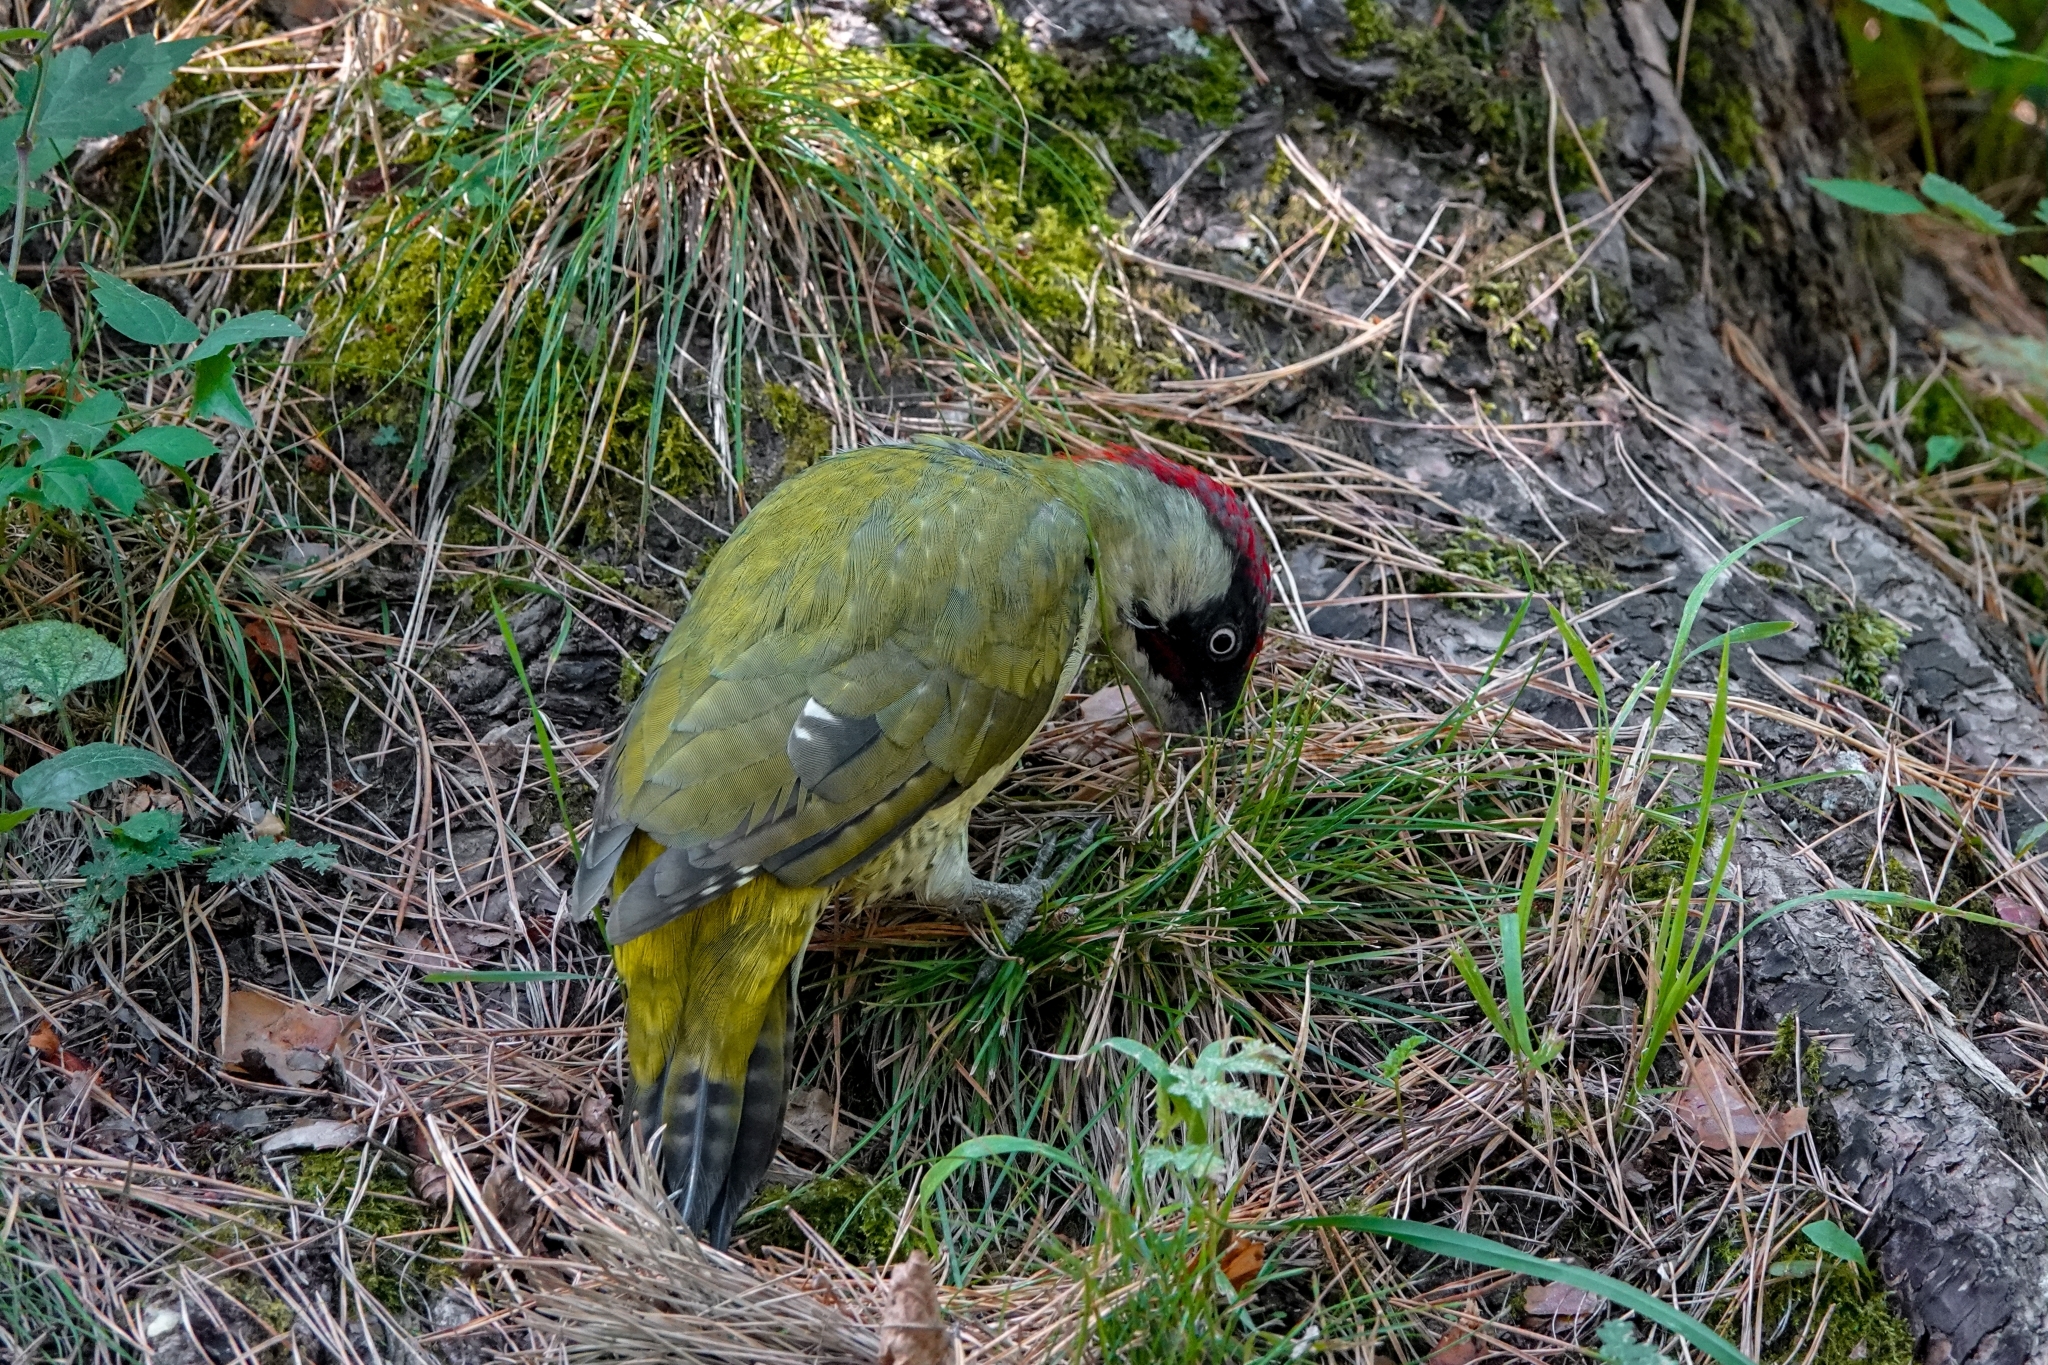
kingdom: Animalia
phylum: Chordata
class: Aves
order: Piciformes
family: Picidae
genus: Picus
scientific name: Picus viridis
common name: European green woodpecker
